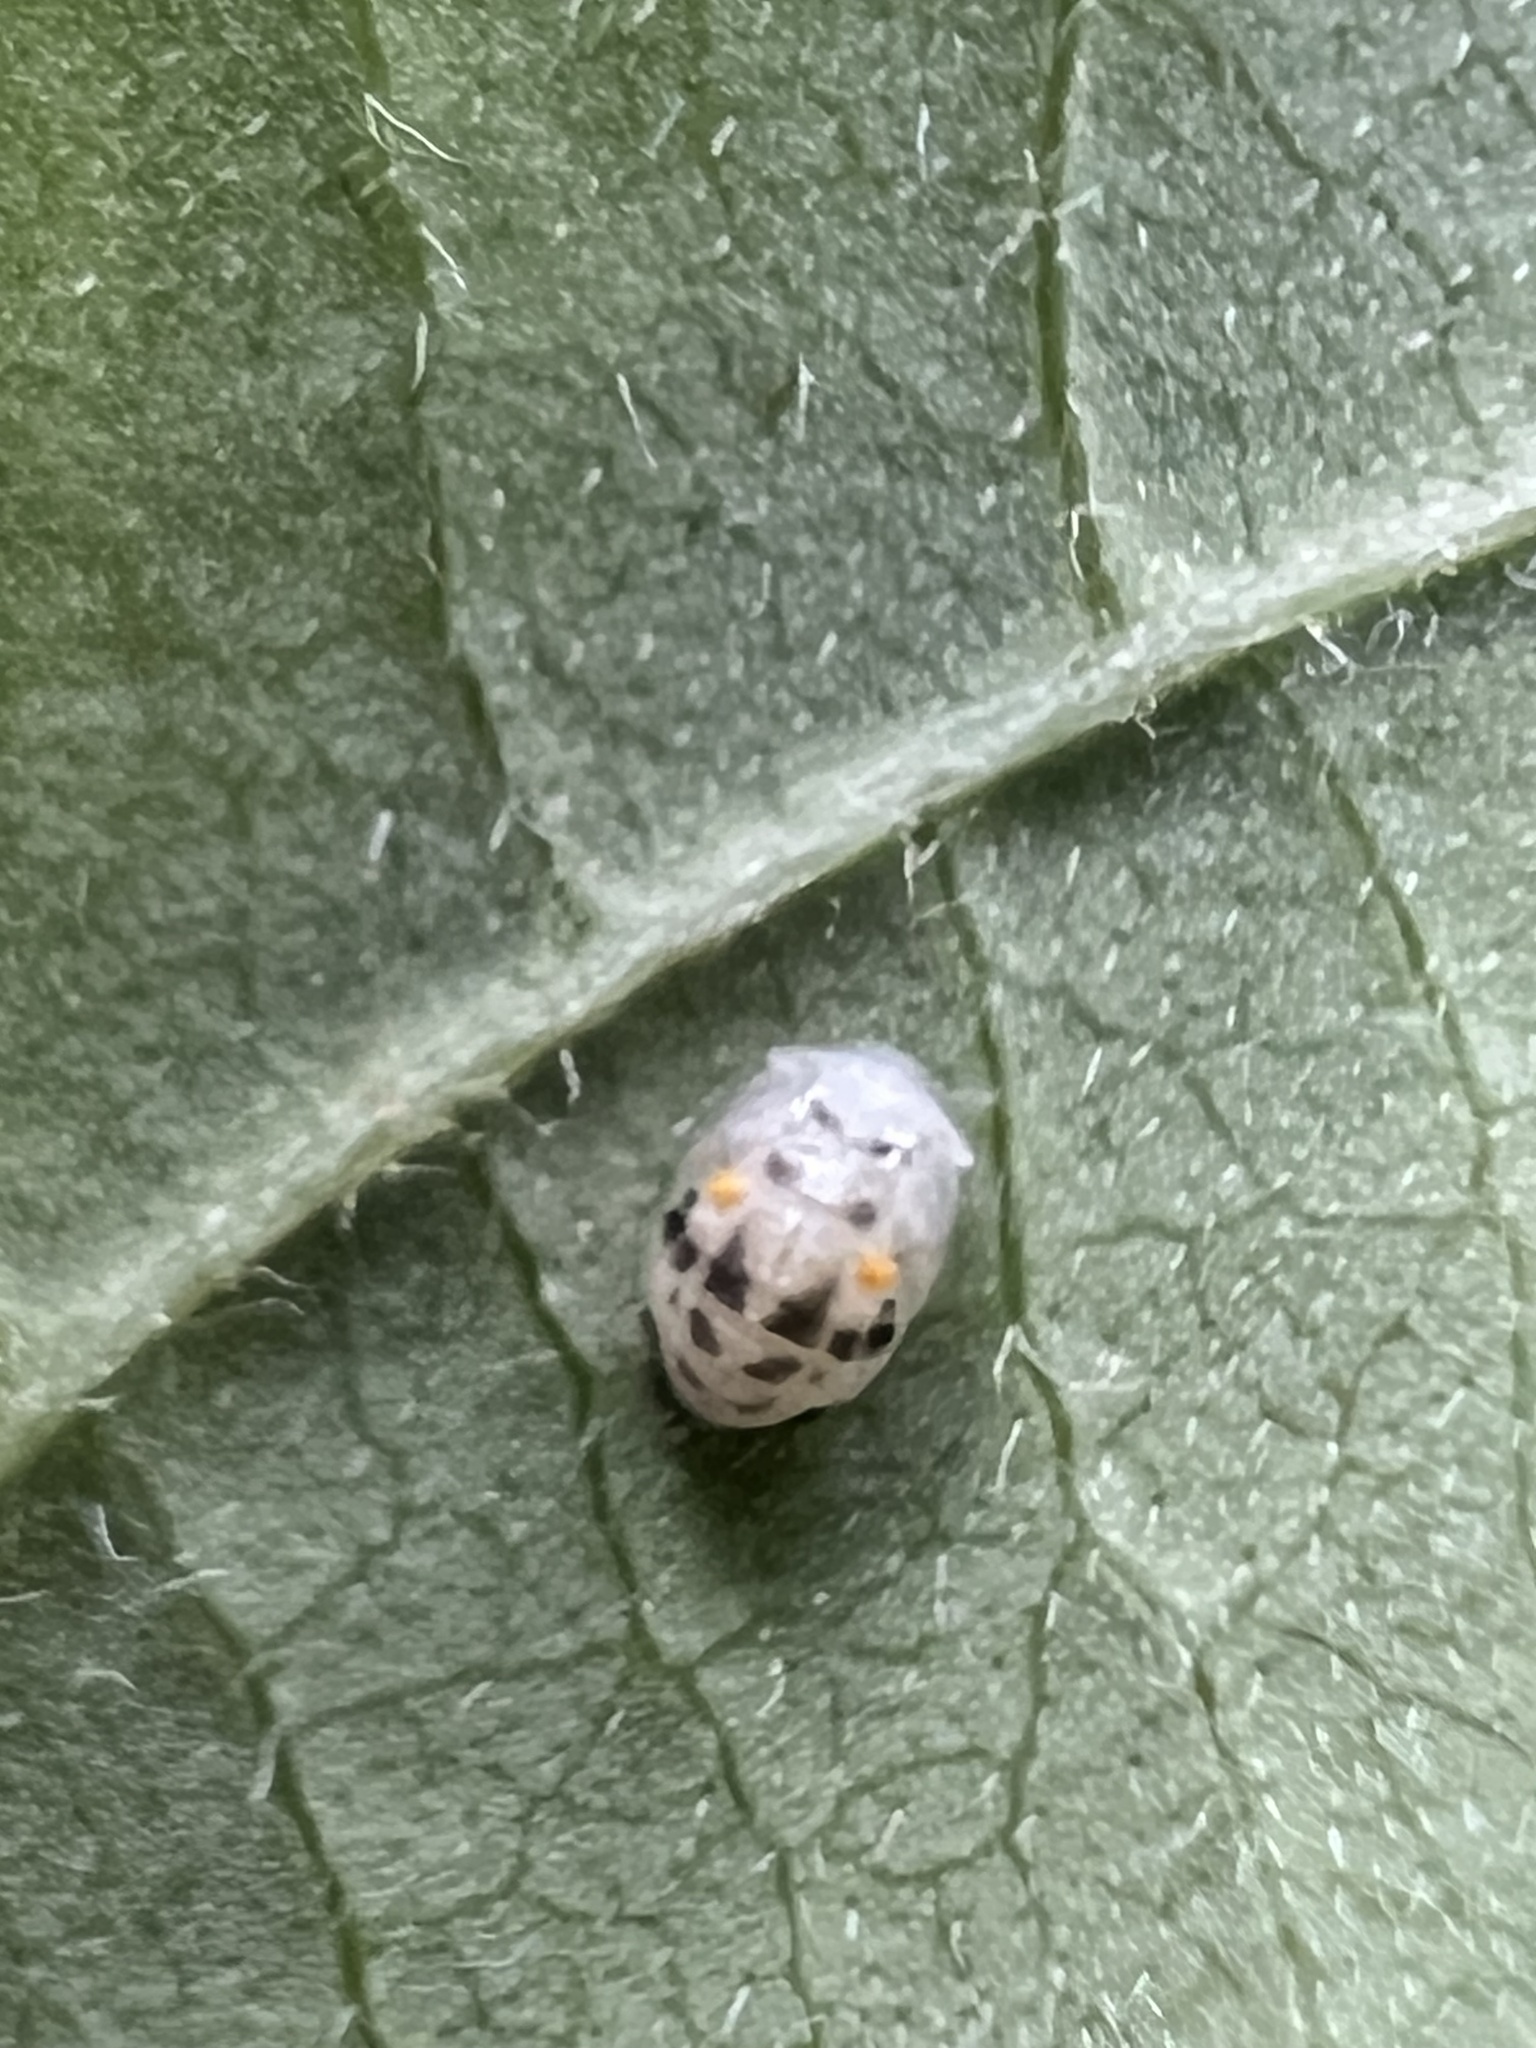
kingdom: Animalia
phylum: Arthropoda
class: Insecta
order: Coleoptera
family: Coccinellidae
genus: Psyllobora
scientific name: Psyllobora vigintimaculata
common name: Ladybird beetle
